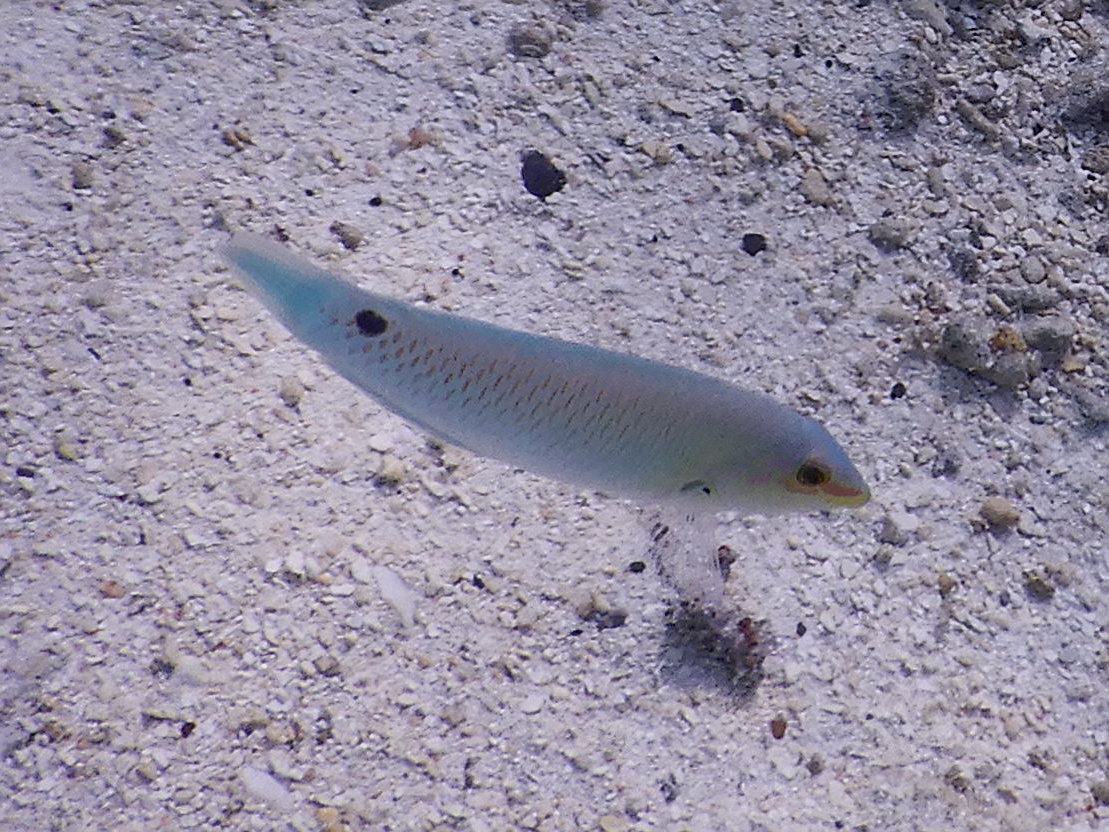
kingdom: Animalia
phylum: Chordata
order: Perciformes
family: Labridae
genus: Halichoeres
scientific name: Halichoeres trimaculatus
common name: Three-spot wrasse
